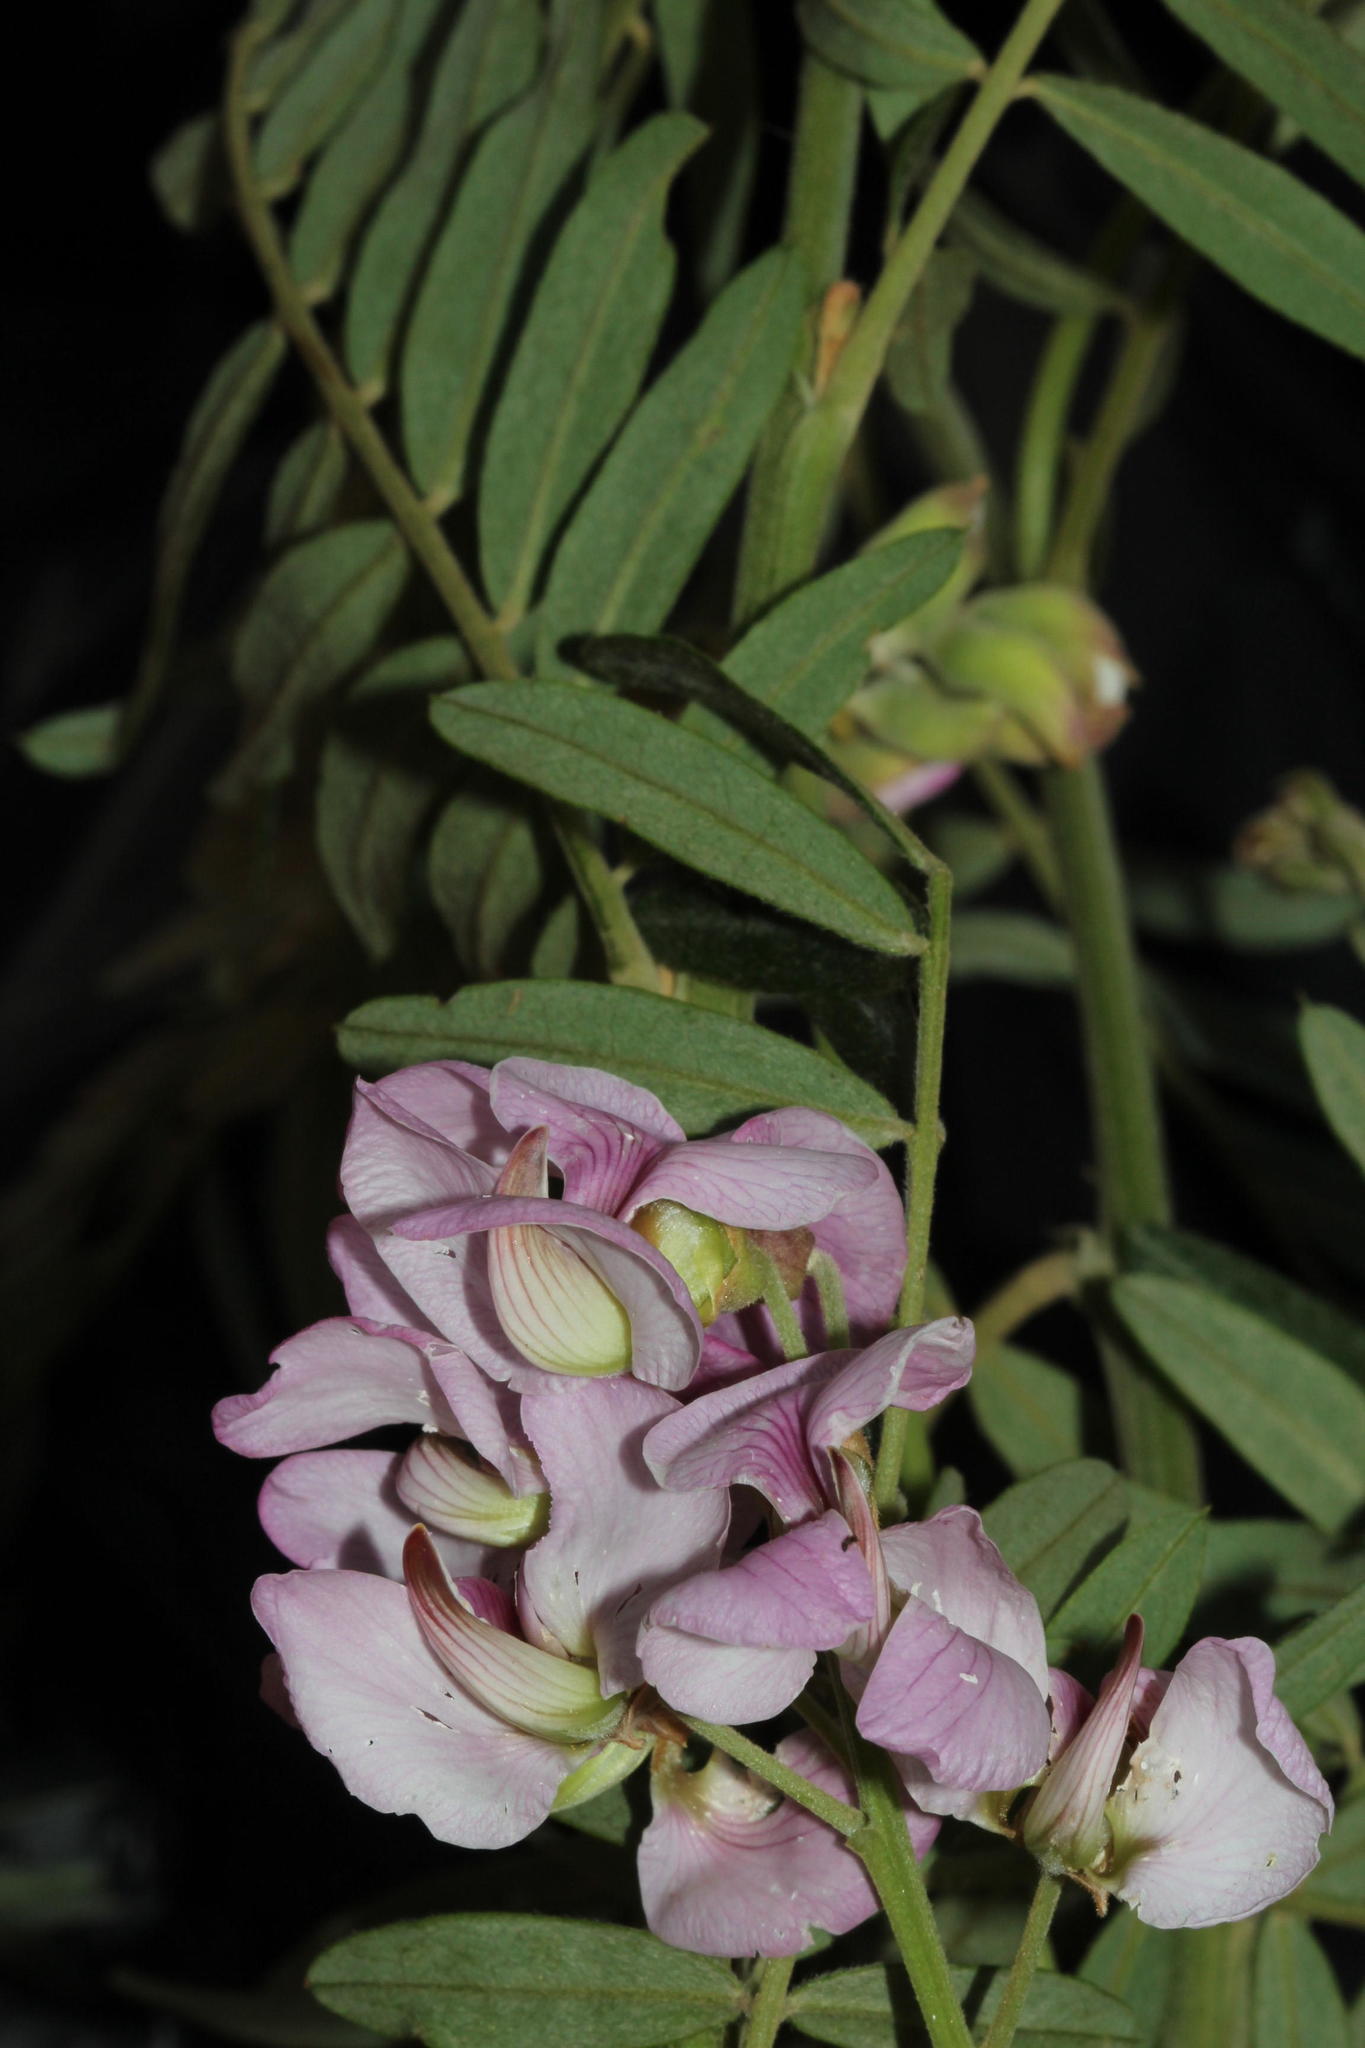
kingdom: Plantae
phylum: Tracheophyta
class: Magnoliopsida
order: Fabales
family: Fabaceae
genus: Virgilia
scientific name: Virgilia divaricata
